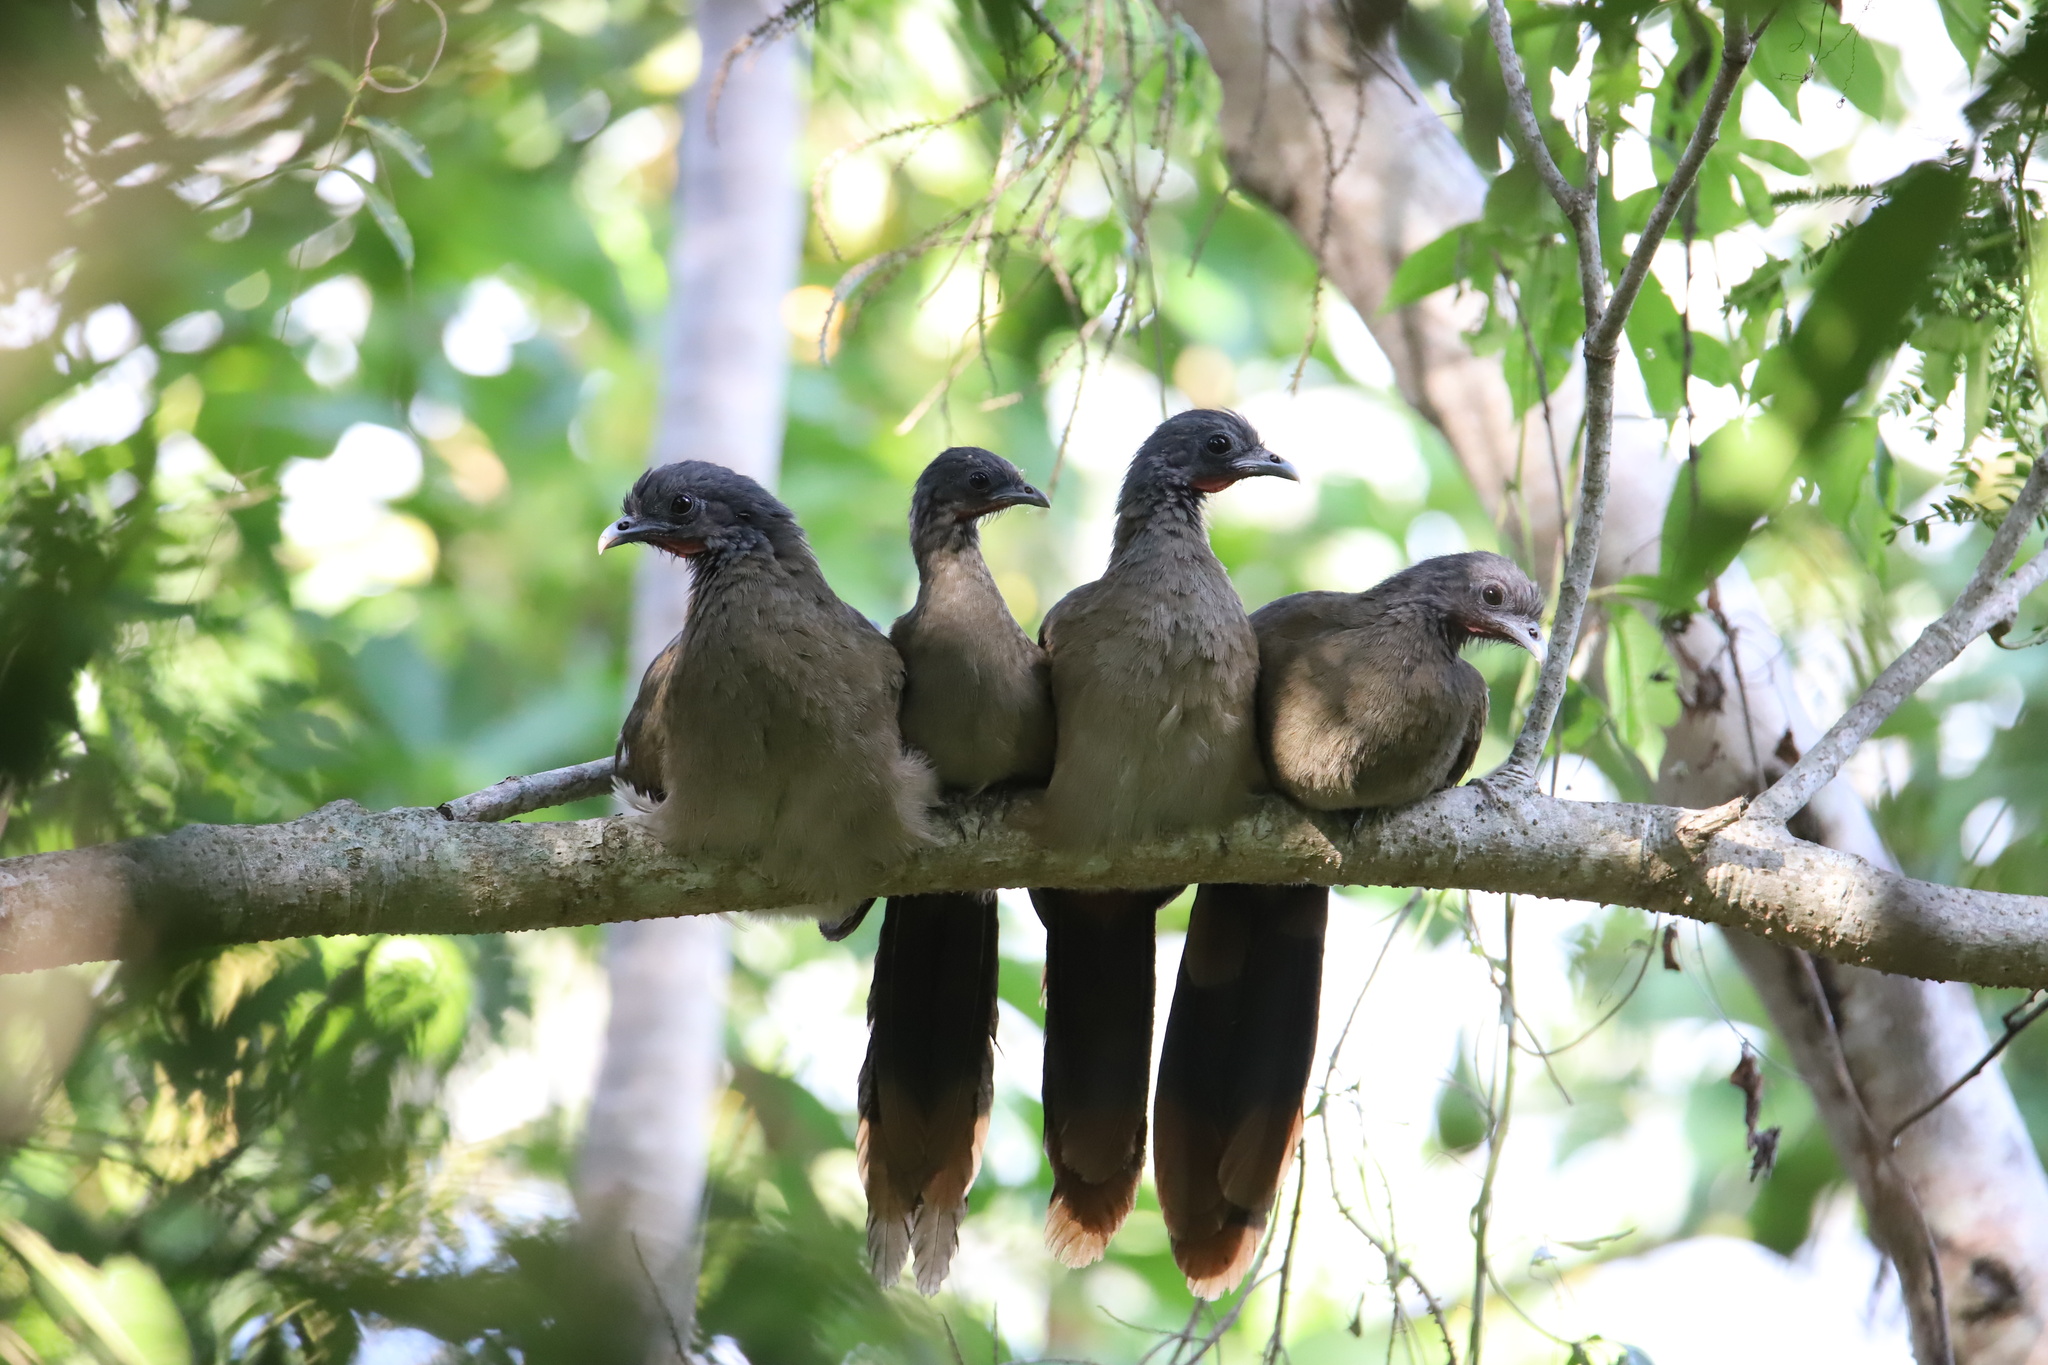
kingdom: Animalia
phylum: Chordata
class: Aves
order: Galliformes
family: Cracidae
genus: Ortalis
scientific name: Ortalis ruficauda
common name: Rufous-vented chachalaca
